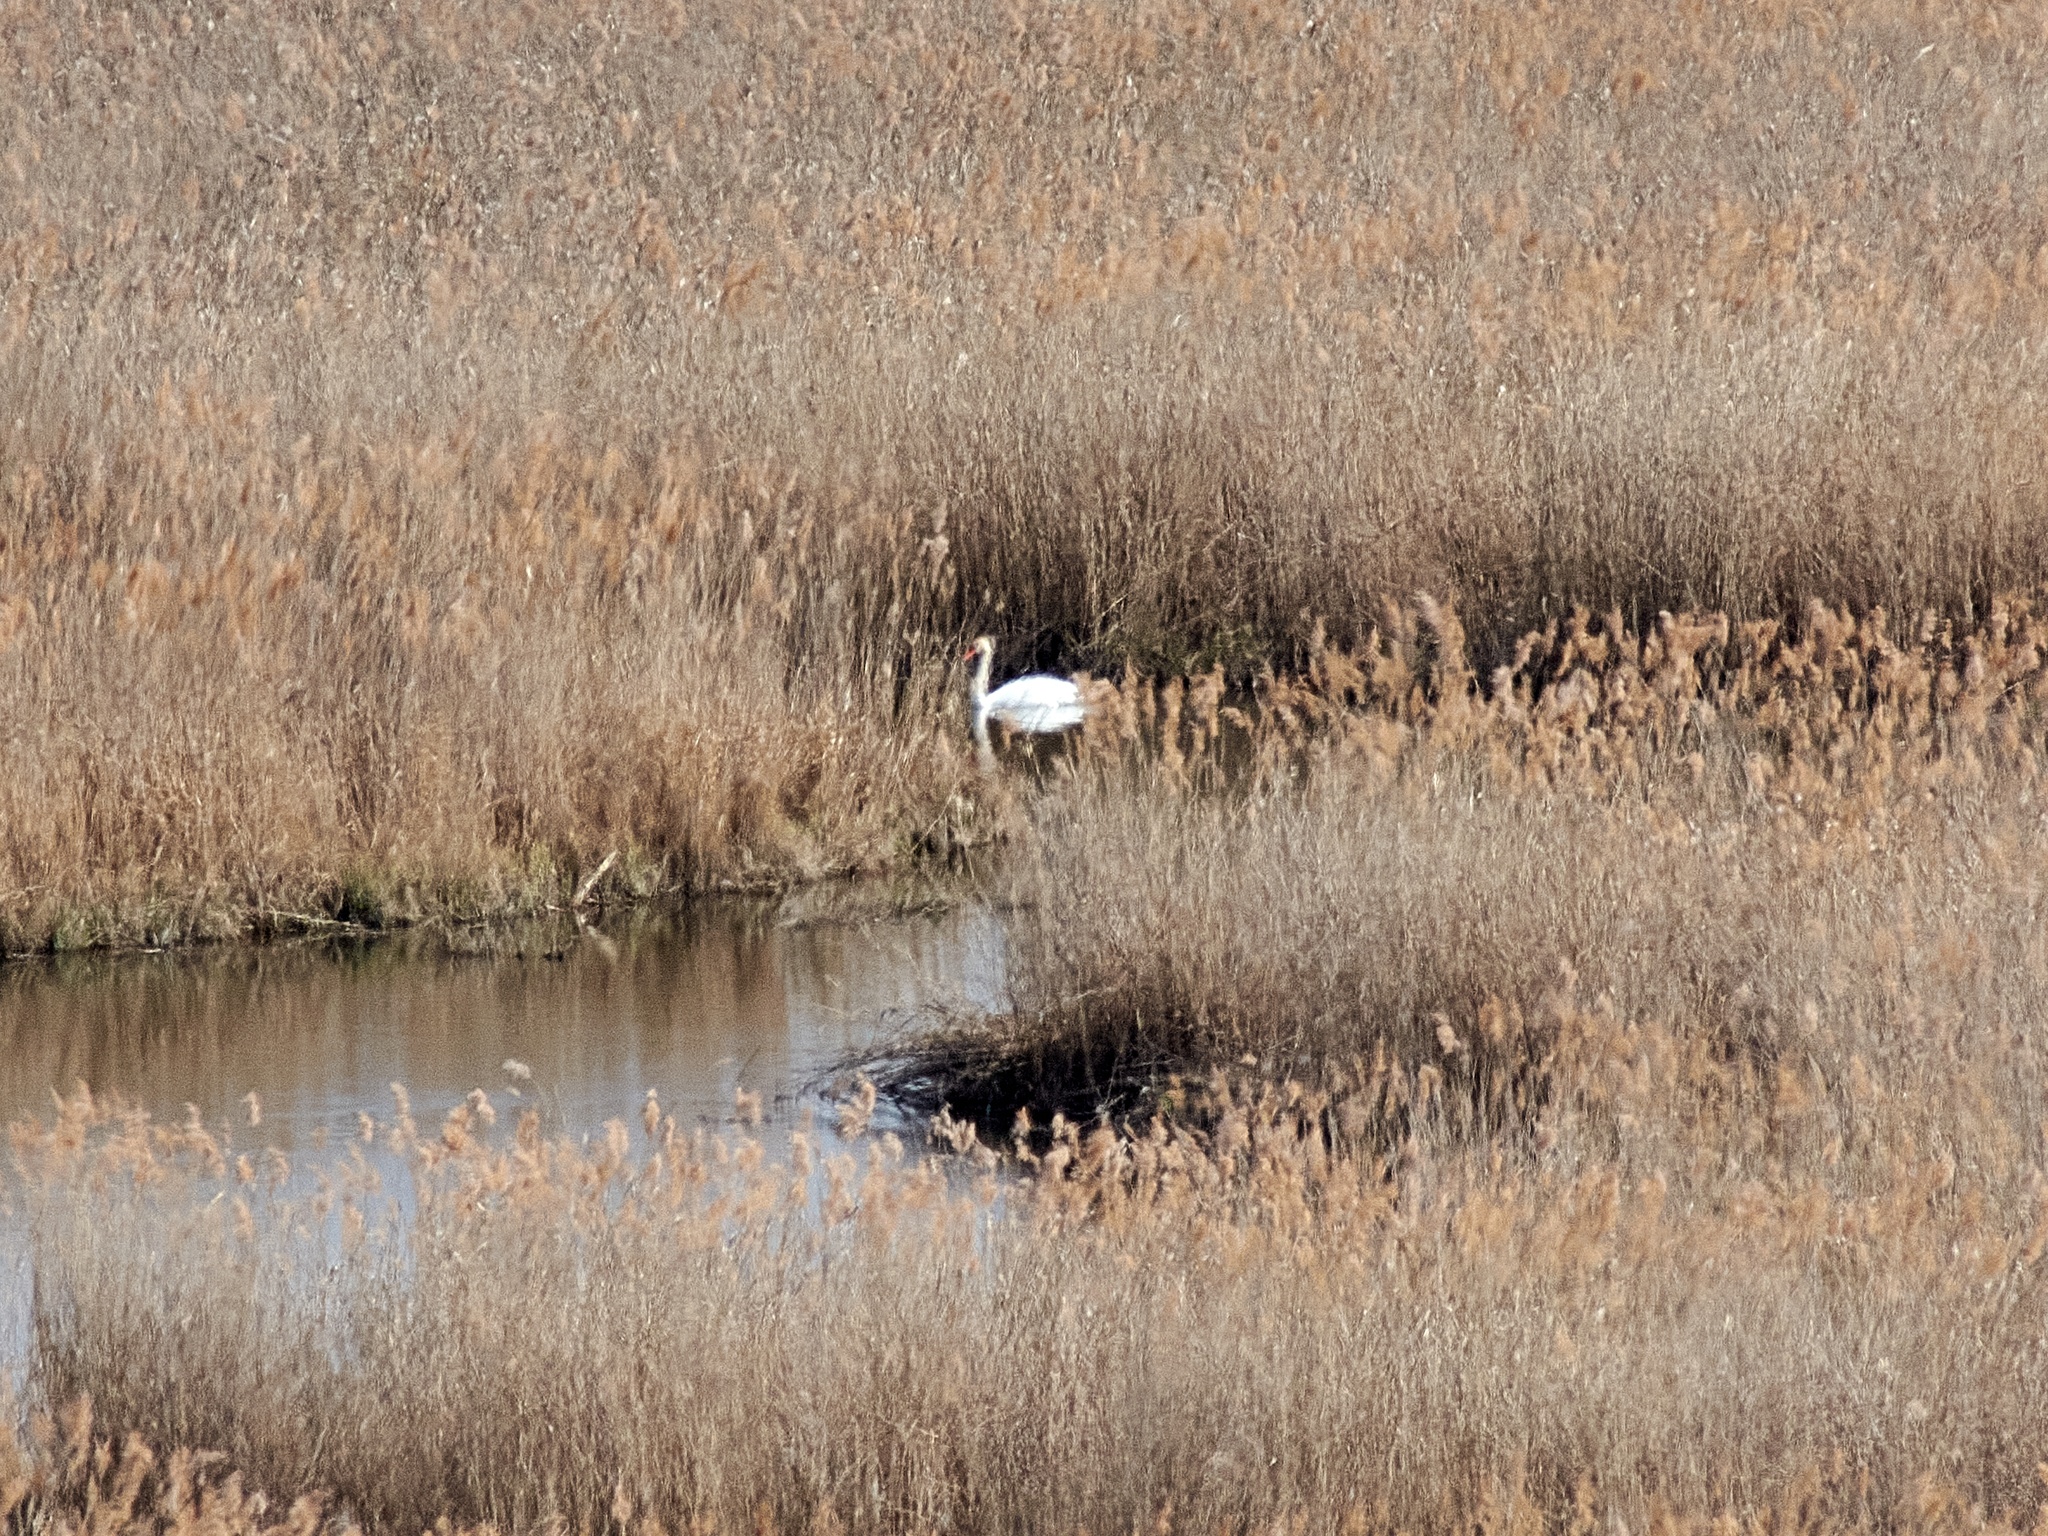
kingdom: Animalia
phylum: Chordata
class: Aves
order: Anseriformes
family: Anatidae
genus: Cygnus
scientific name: Cygnus olor
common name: Mute swan
